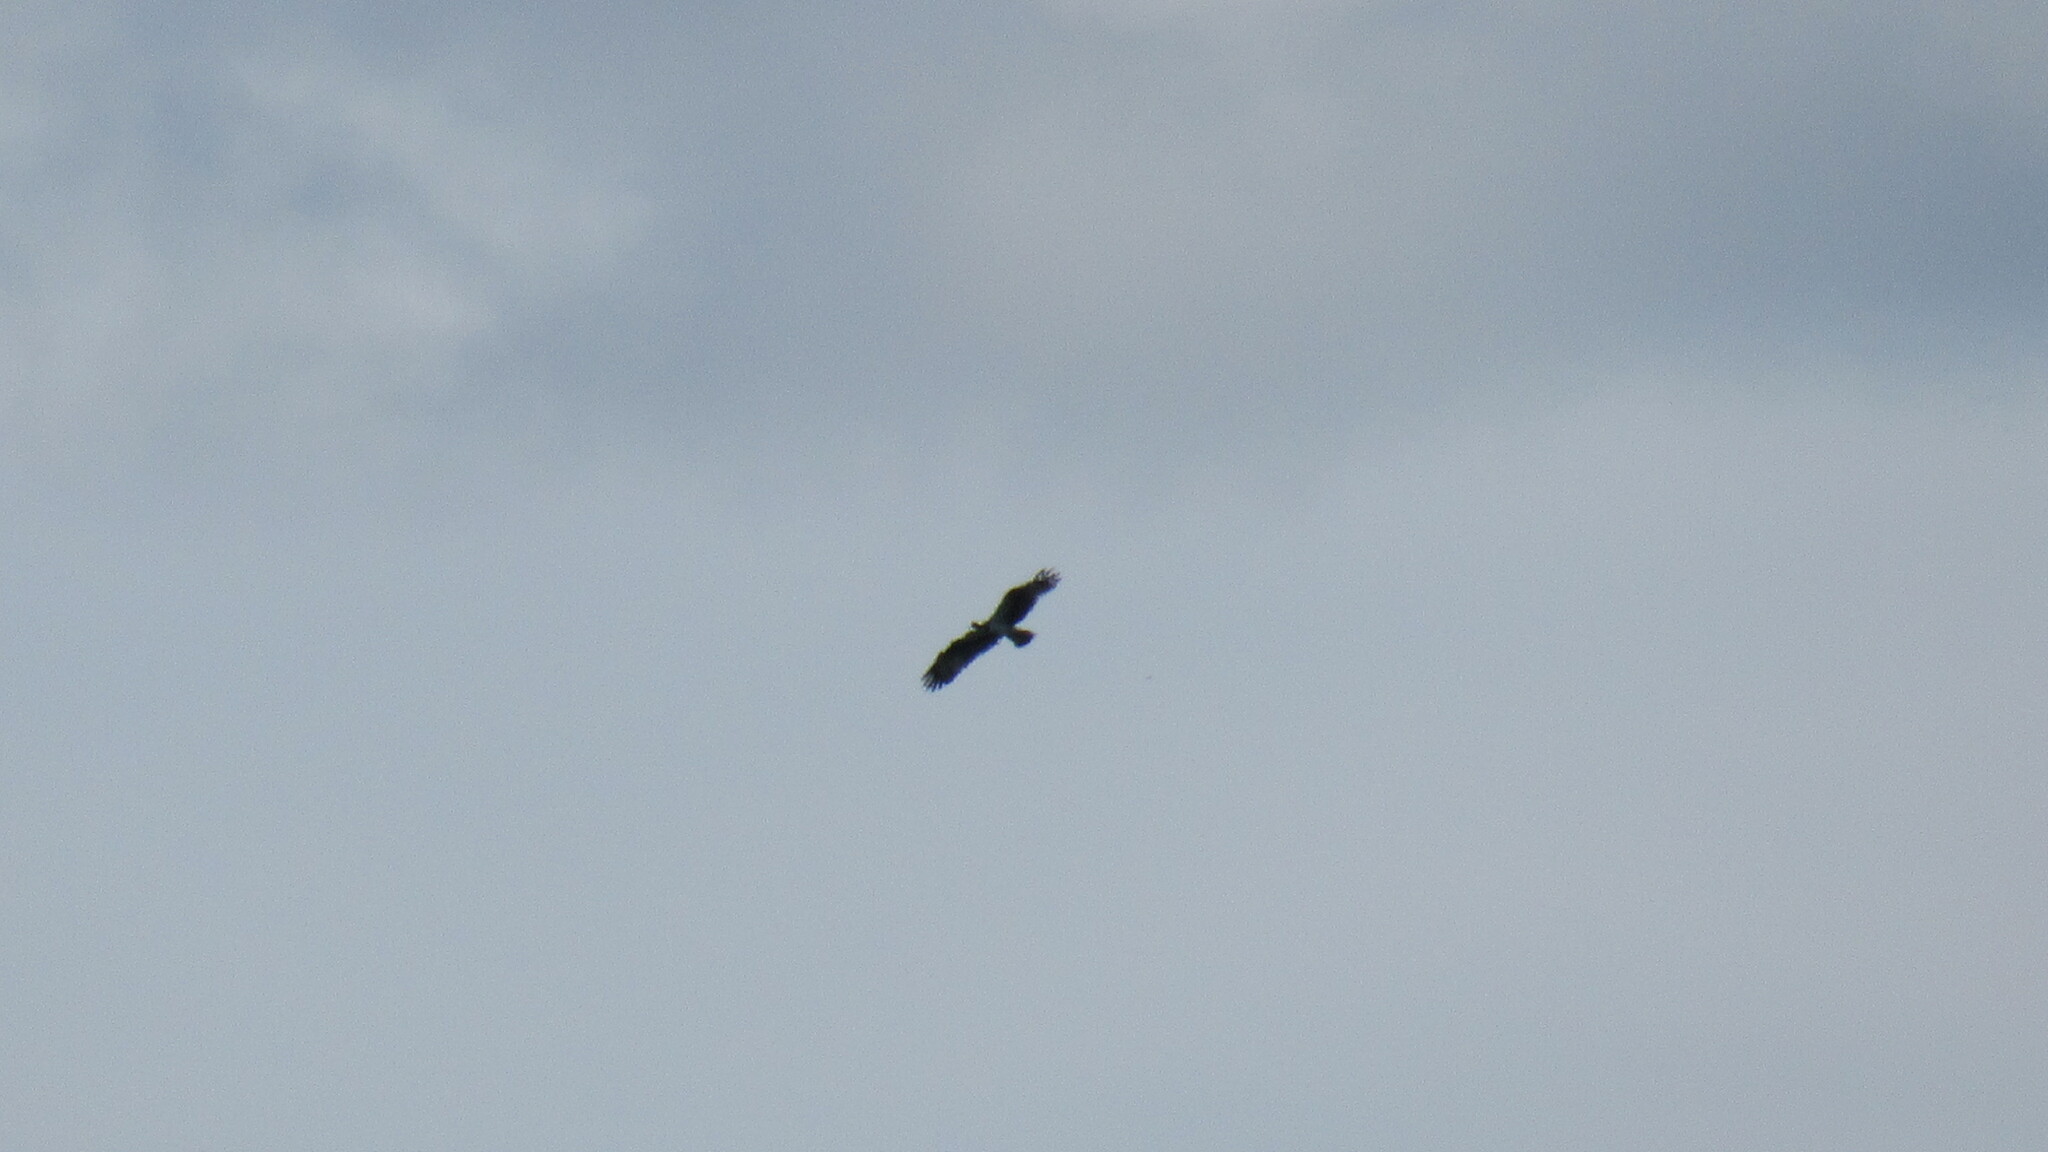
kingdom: Animalia
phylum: Chordata
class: Aves
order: Accipitriformes
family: Pandionidae
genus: Pandion
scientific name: Pandion haliaetus
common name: Osprey
